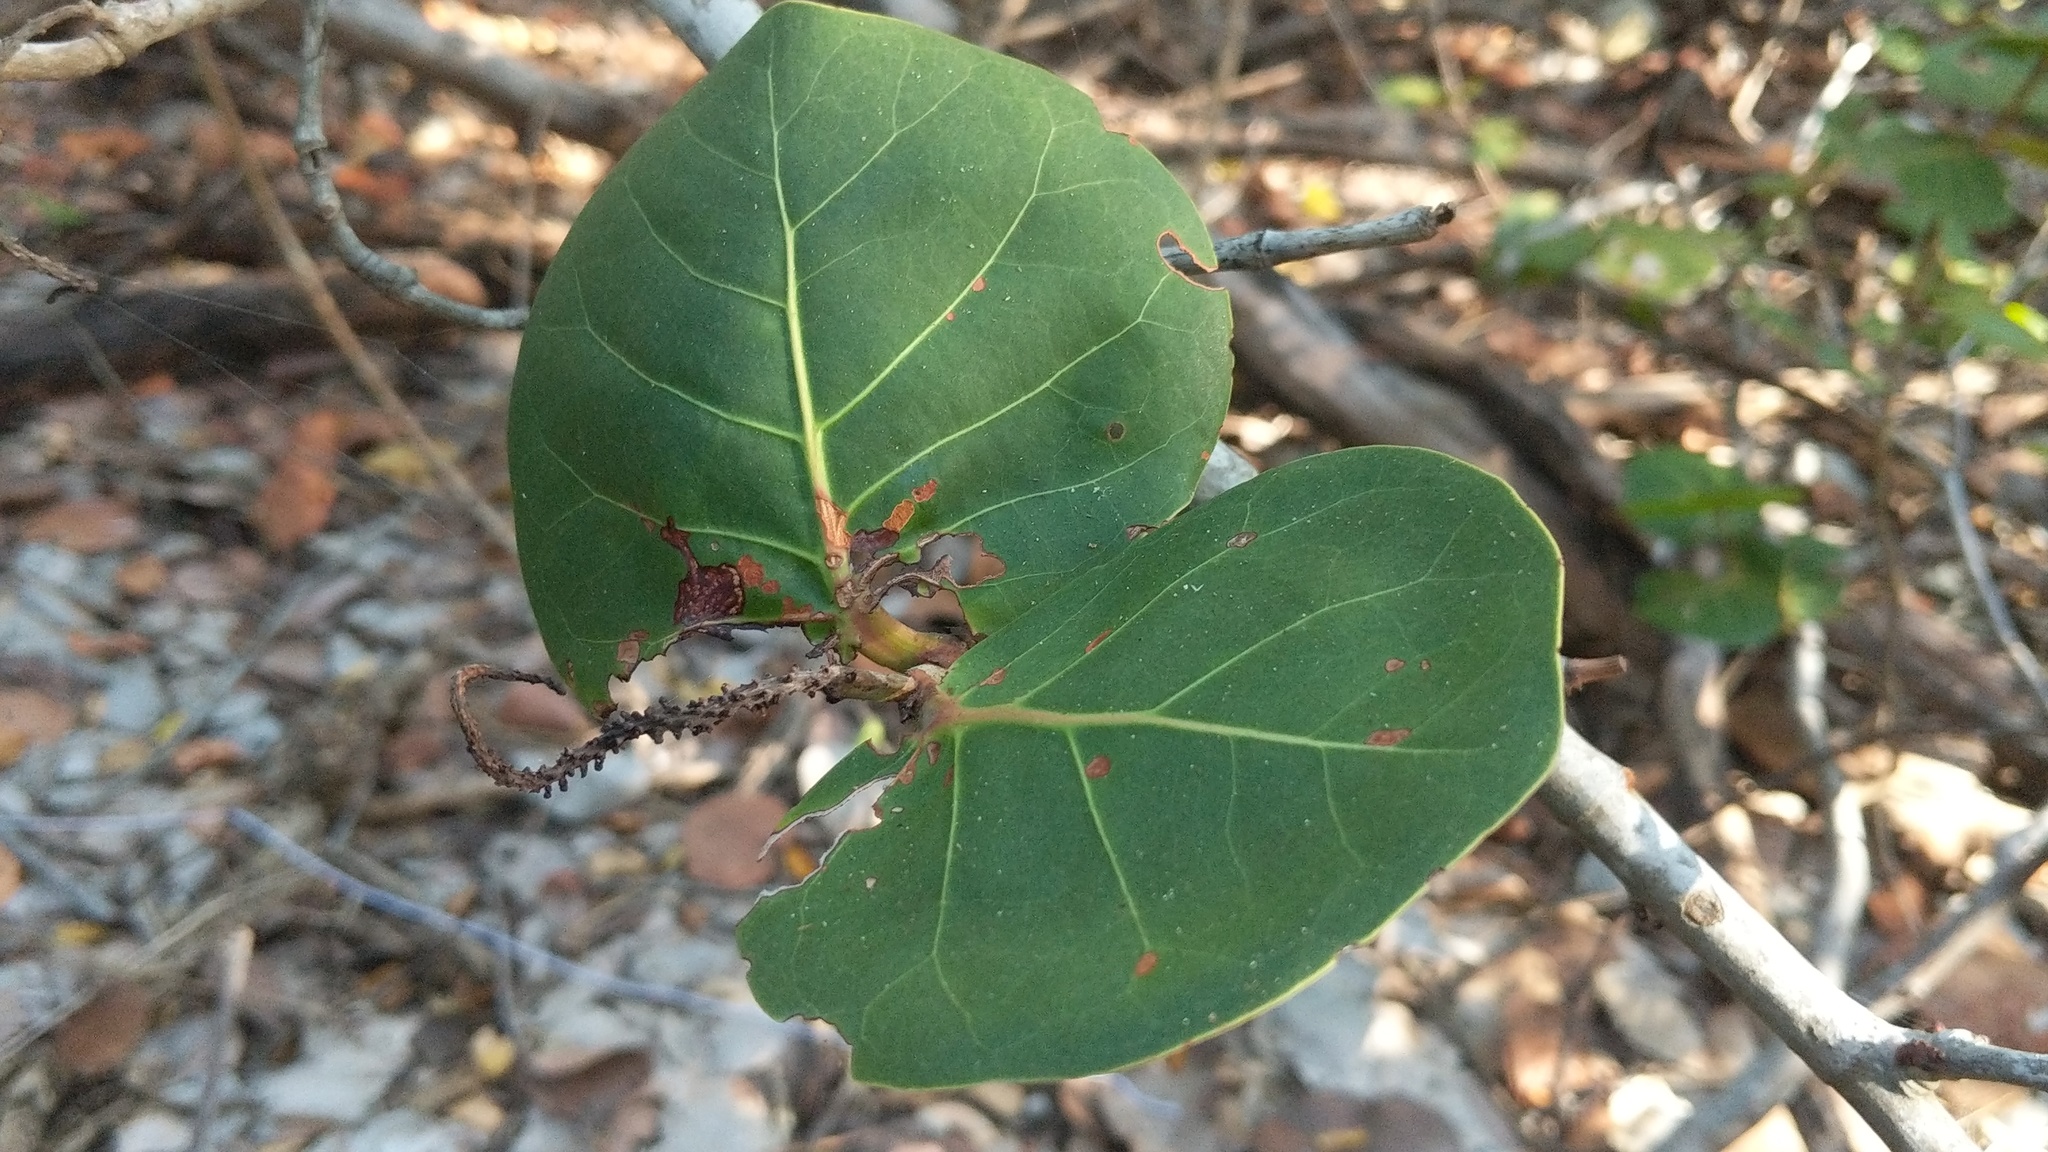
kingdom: Plantae
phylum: Tracheophyta
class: Magnoliopsida
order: Caryophyllales
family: Polygonaceae
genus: Coccoloba
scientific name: Coccoloba uvifera
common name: Seagrape
